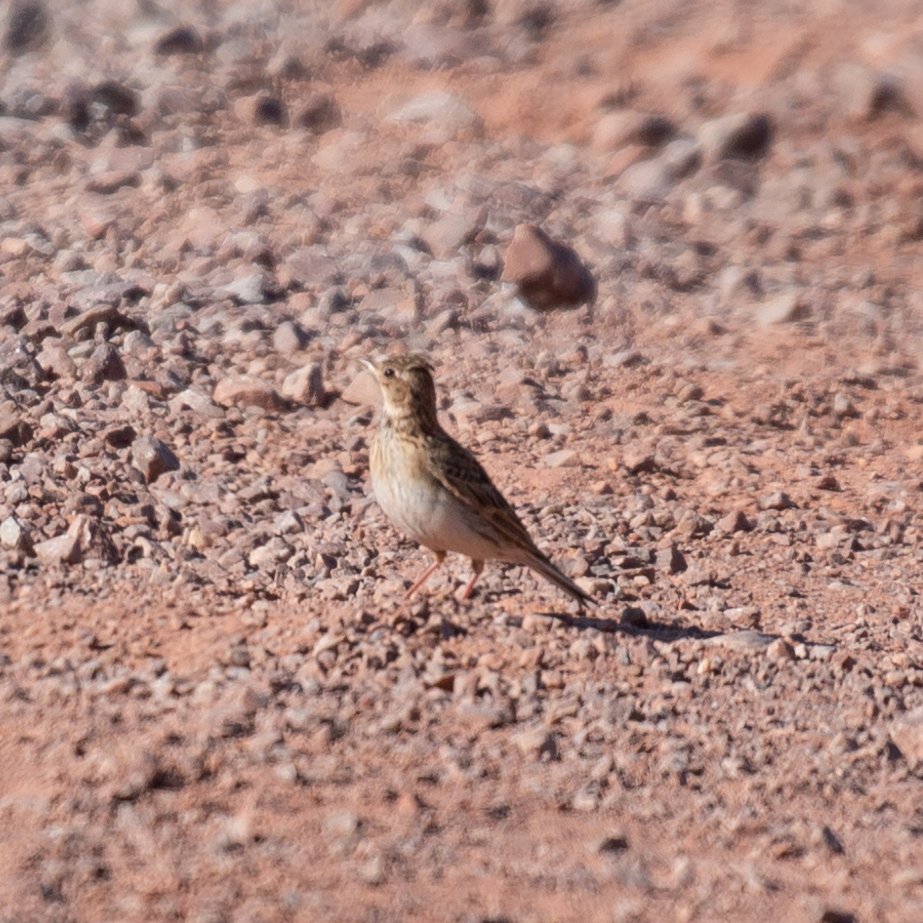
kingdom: Animalia
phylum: Chordata
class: Aves
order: Passeriformes
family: Alaudidae
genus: Alauda
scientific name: Alauda arvensis
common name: Eurasian skylark
